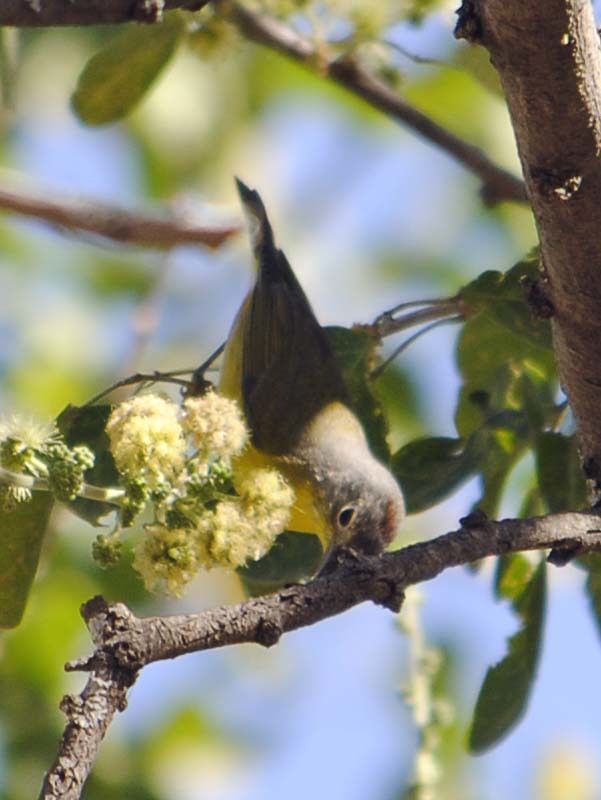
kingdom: Animalia
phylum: Chordata
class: Aves
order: Passeriformes
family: Parulidae
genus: Leiothlypis
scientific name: Leiothlypis ruficapilla
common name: Nashville warbler
